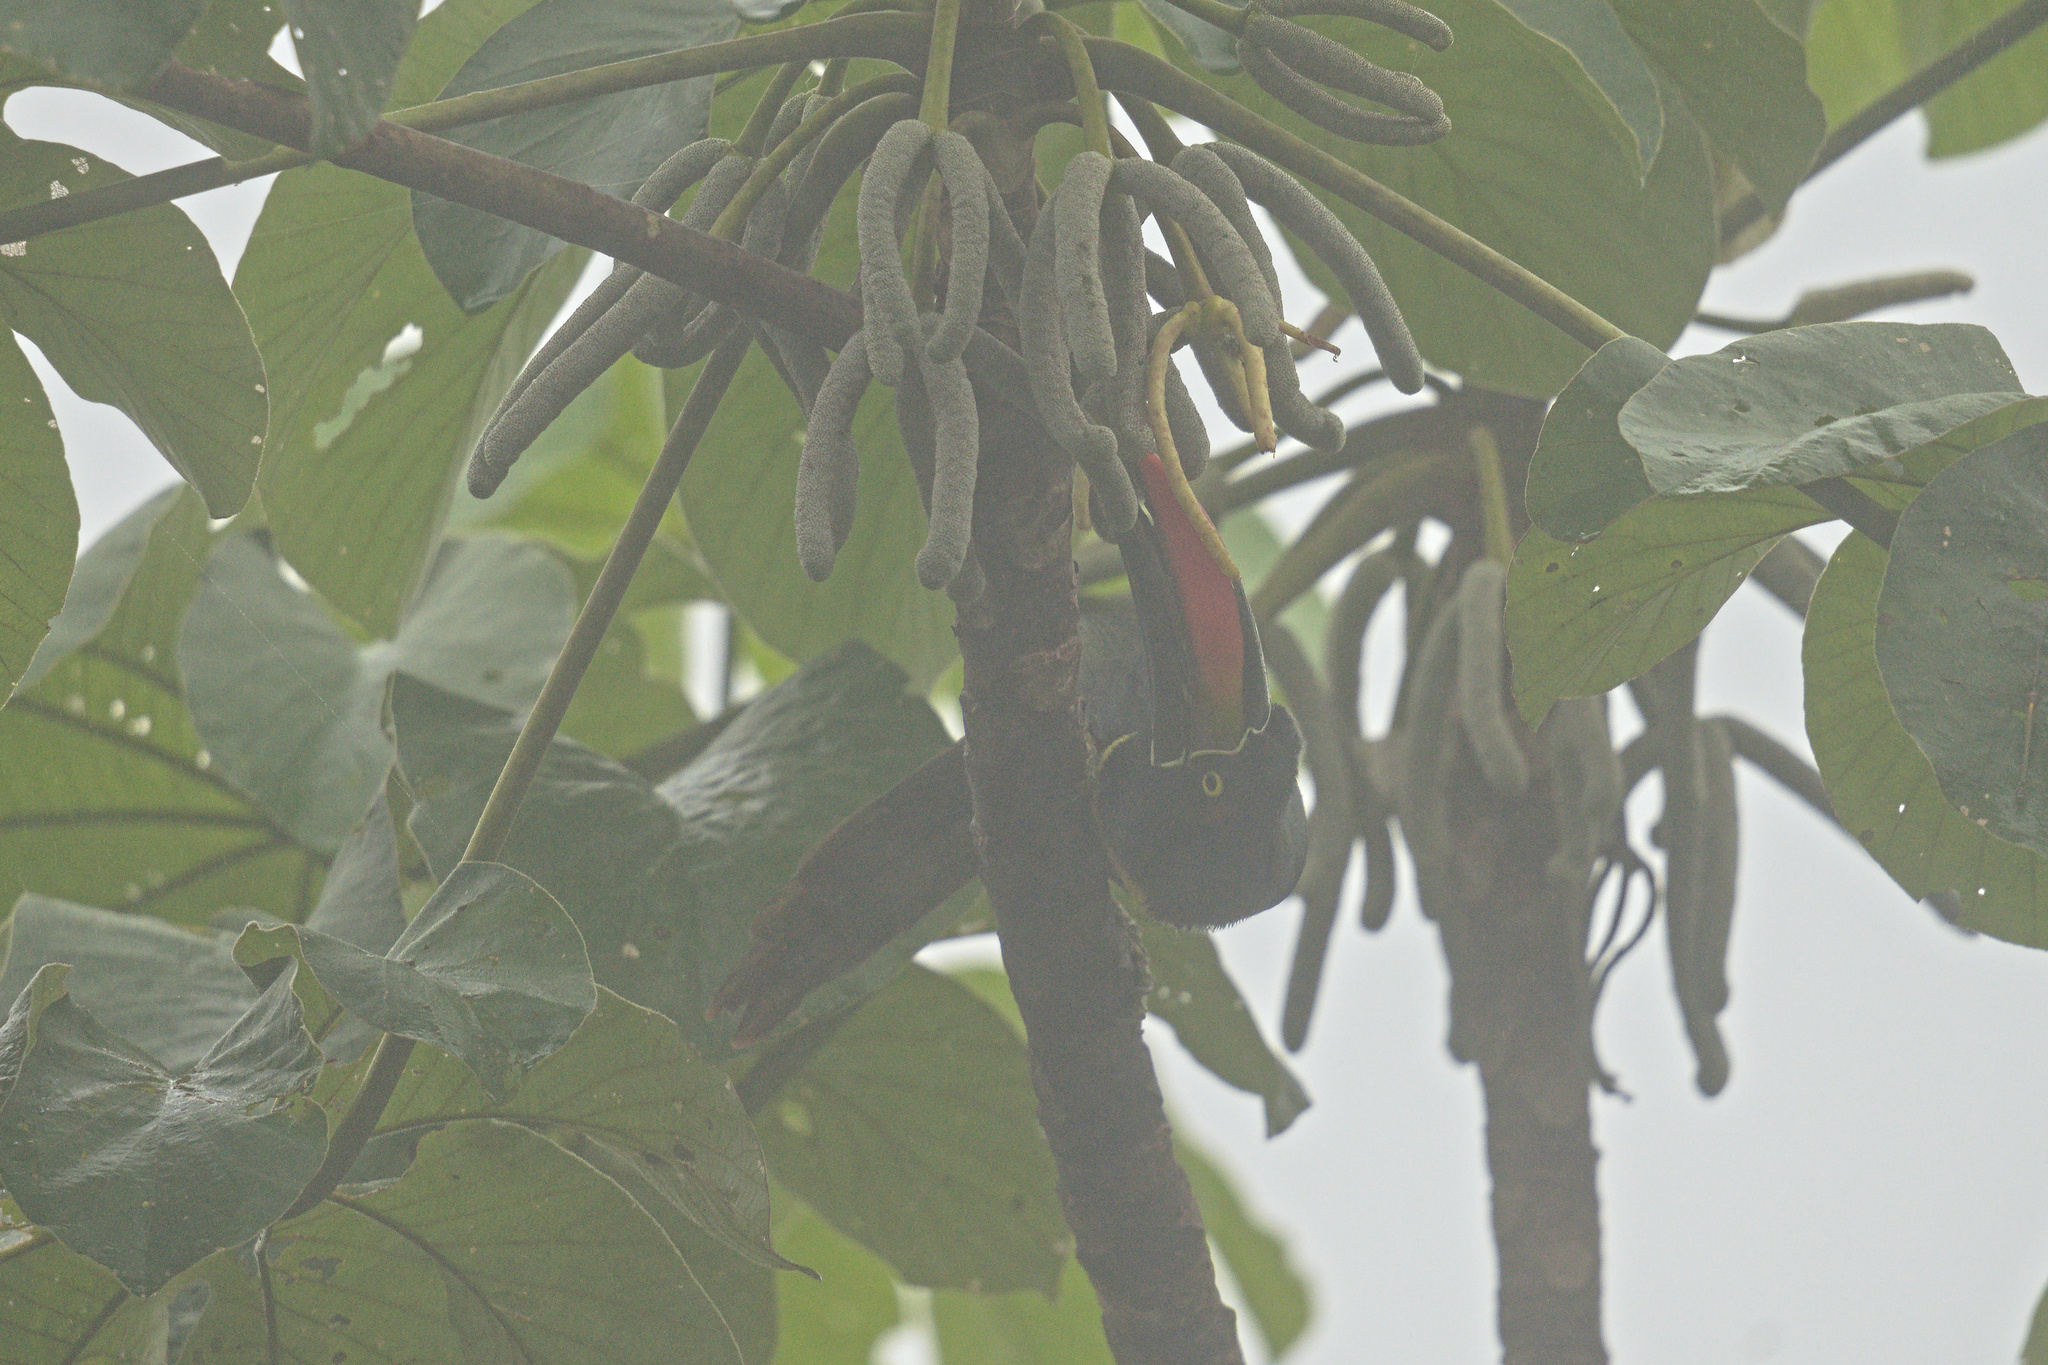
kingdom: Animalia
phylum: Chordata
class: Aves
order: Piciformes
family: Ramphastidae
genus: Pteroglossus
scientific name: Pteroglossus frantzii
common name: Fiery-billed aracari
